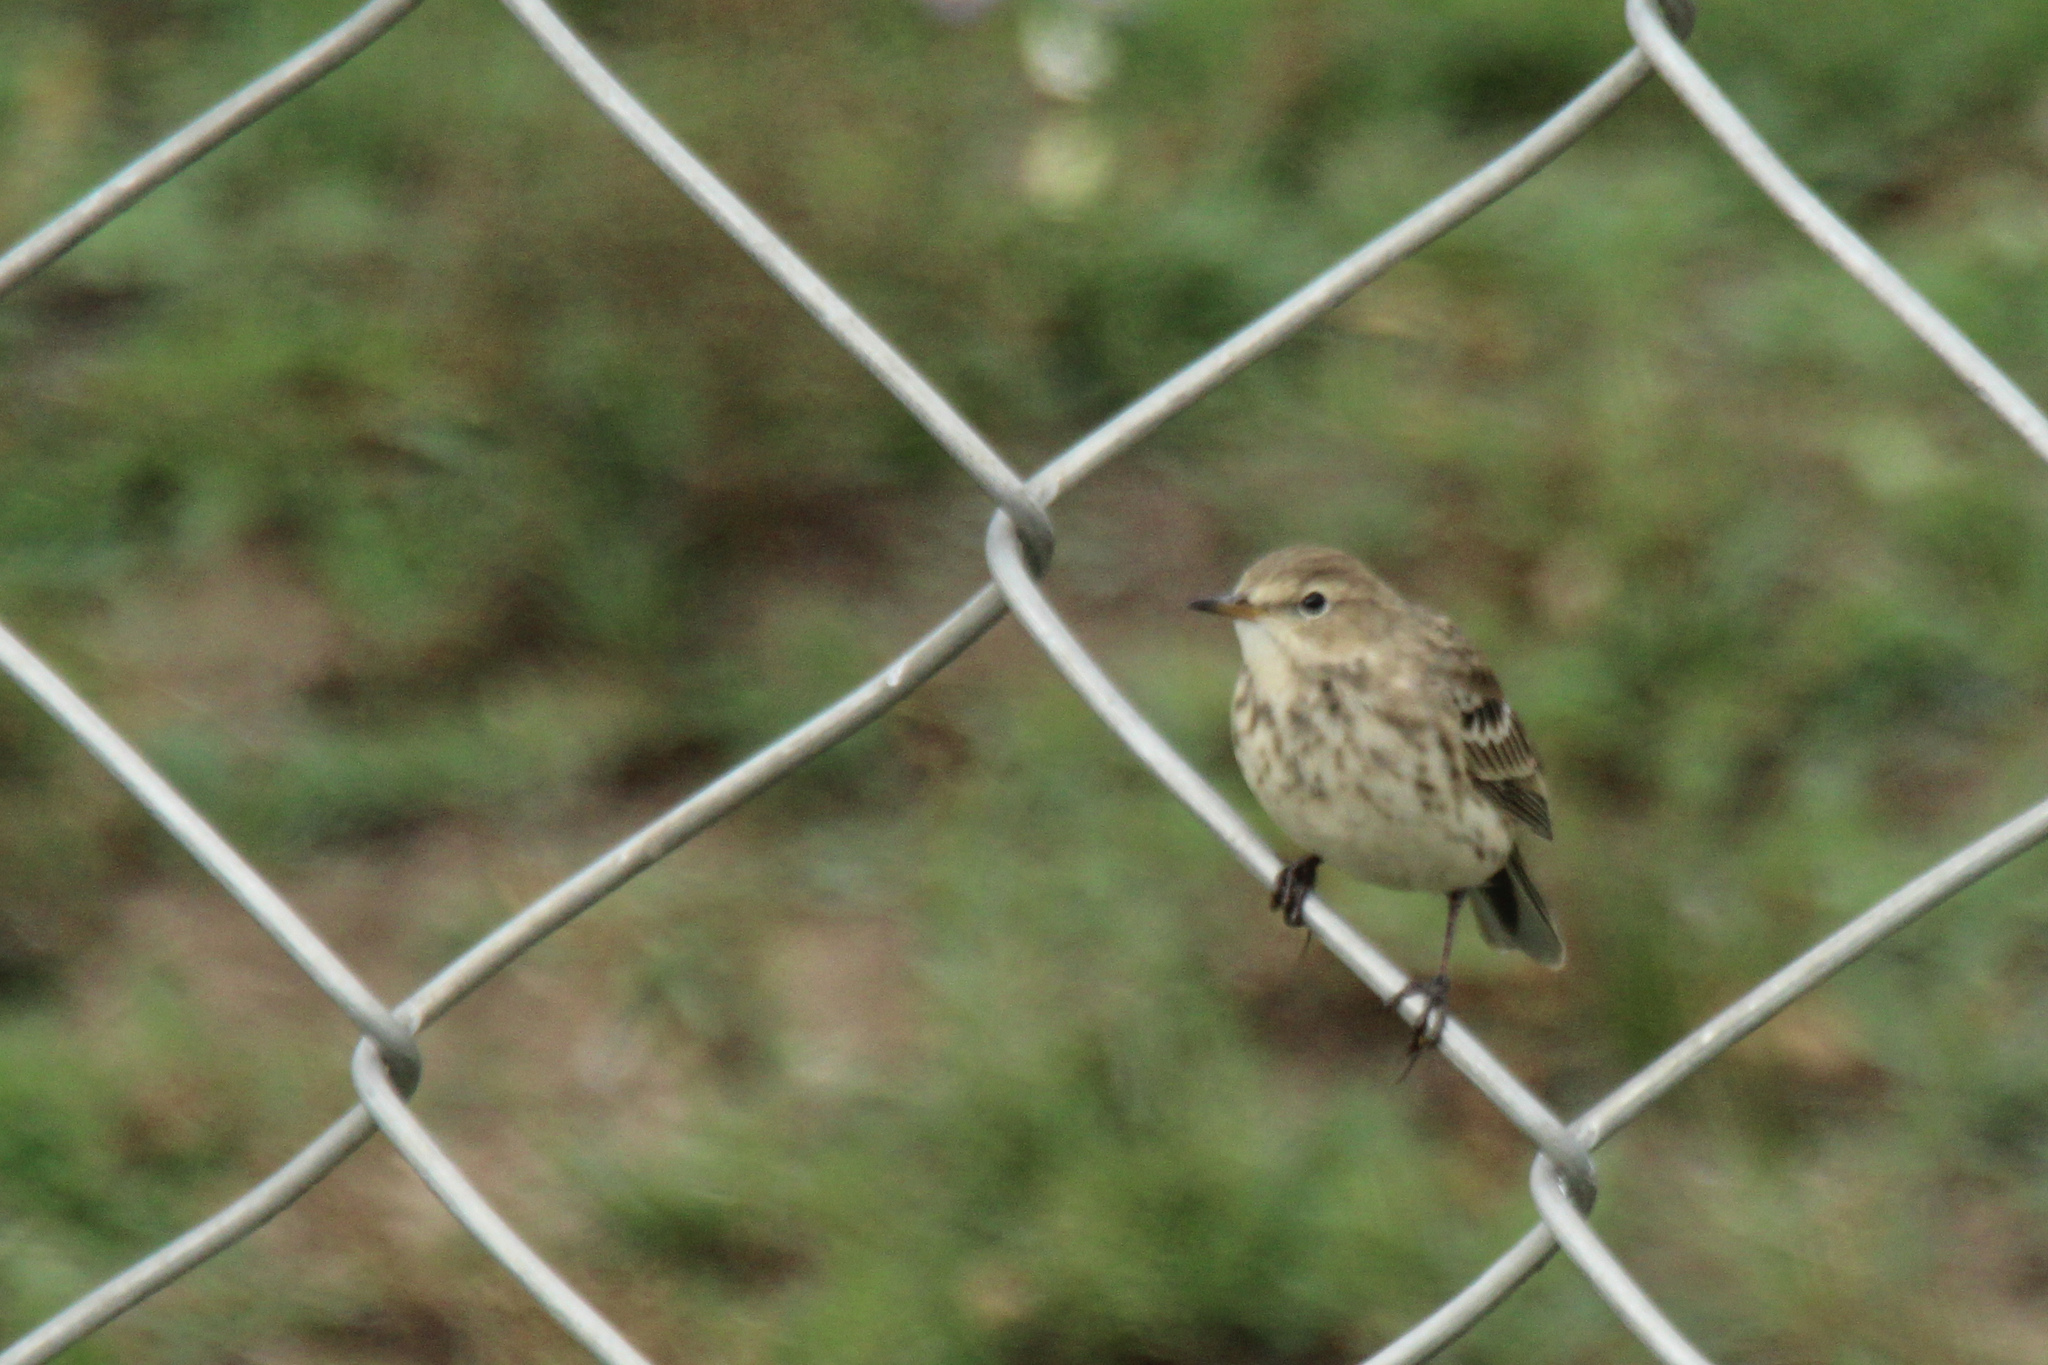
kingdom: Animalia
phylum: Chordata
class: Aves
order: Passeriformes
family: Motacillidae
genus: Anthus
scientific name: Anthus spinoletta
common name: Water pipit
